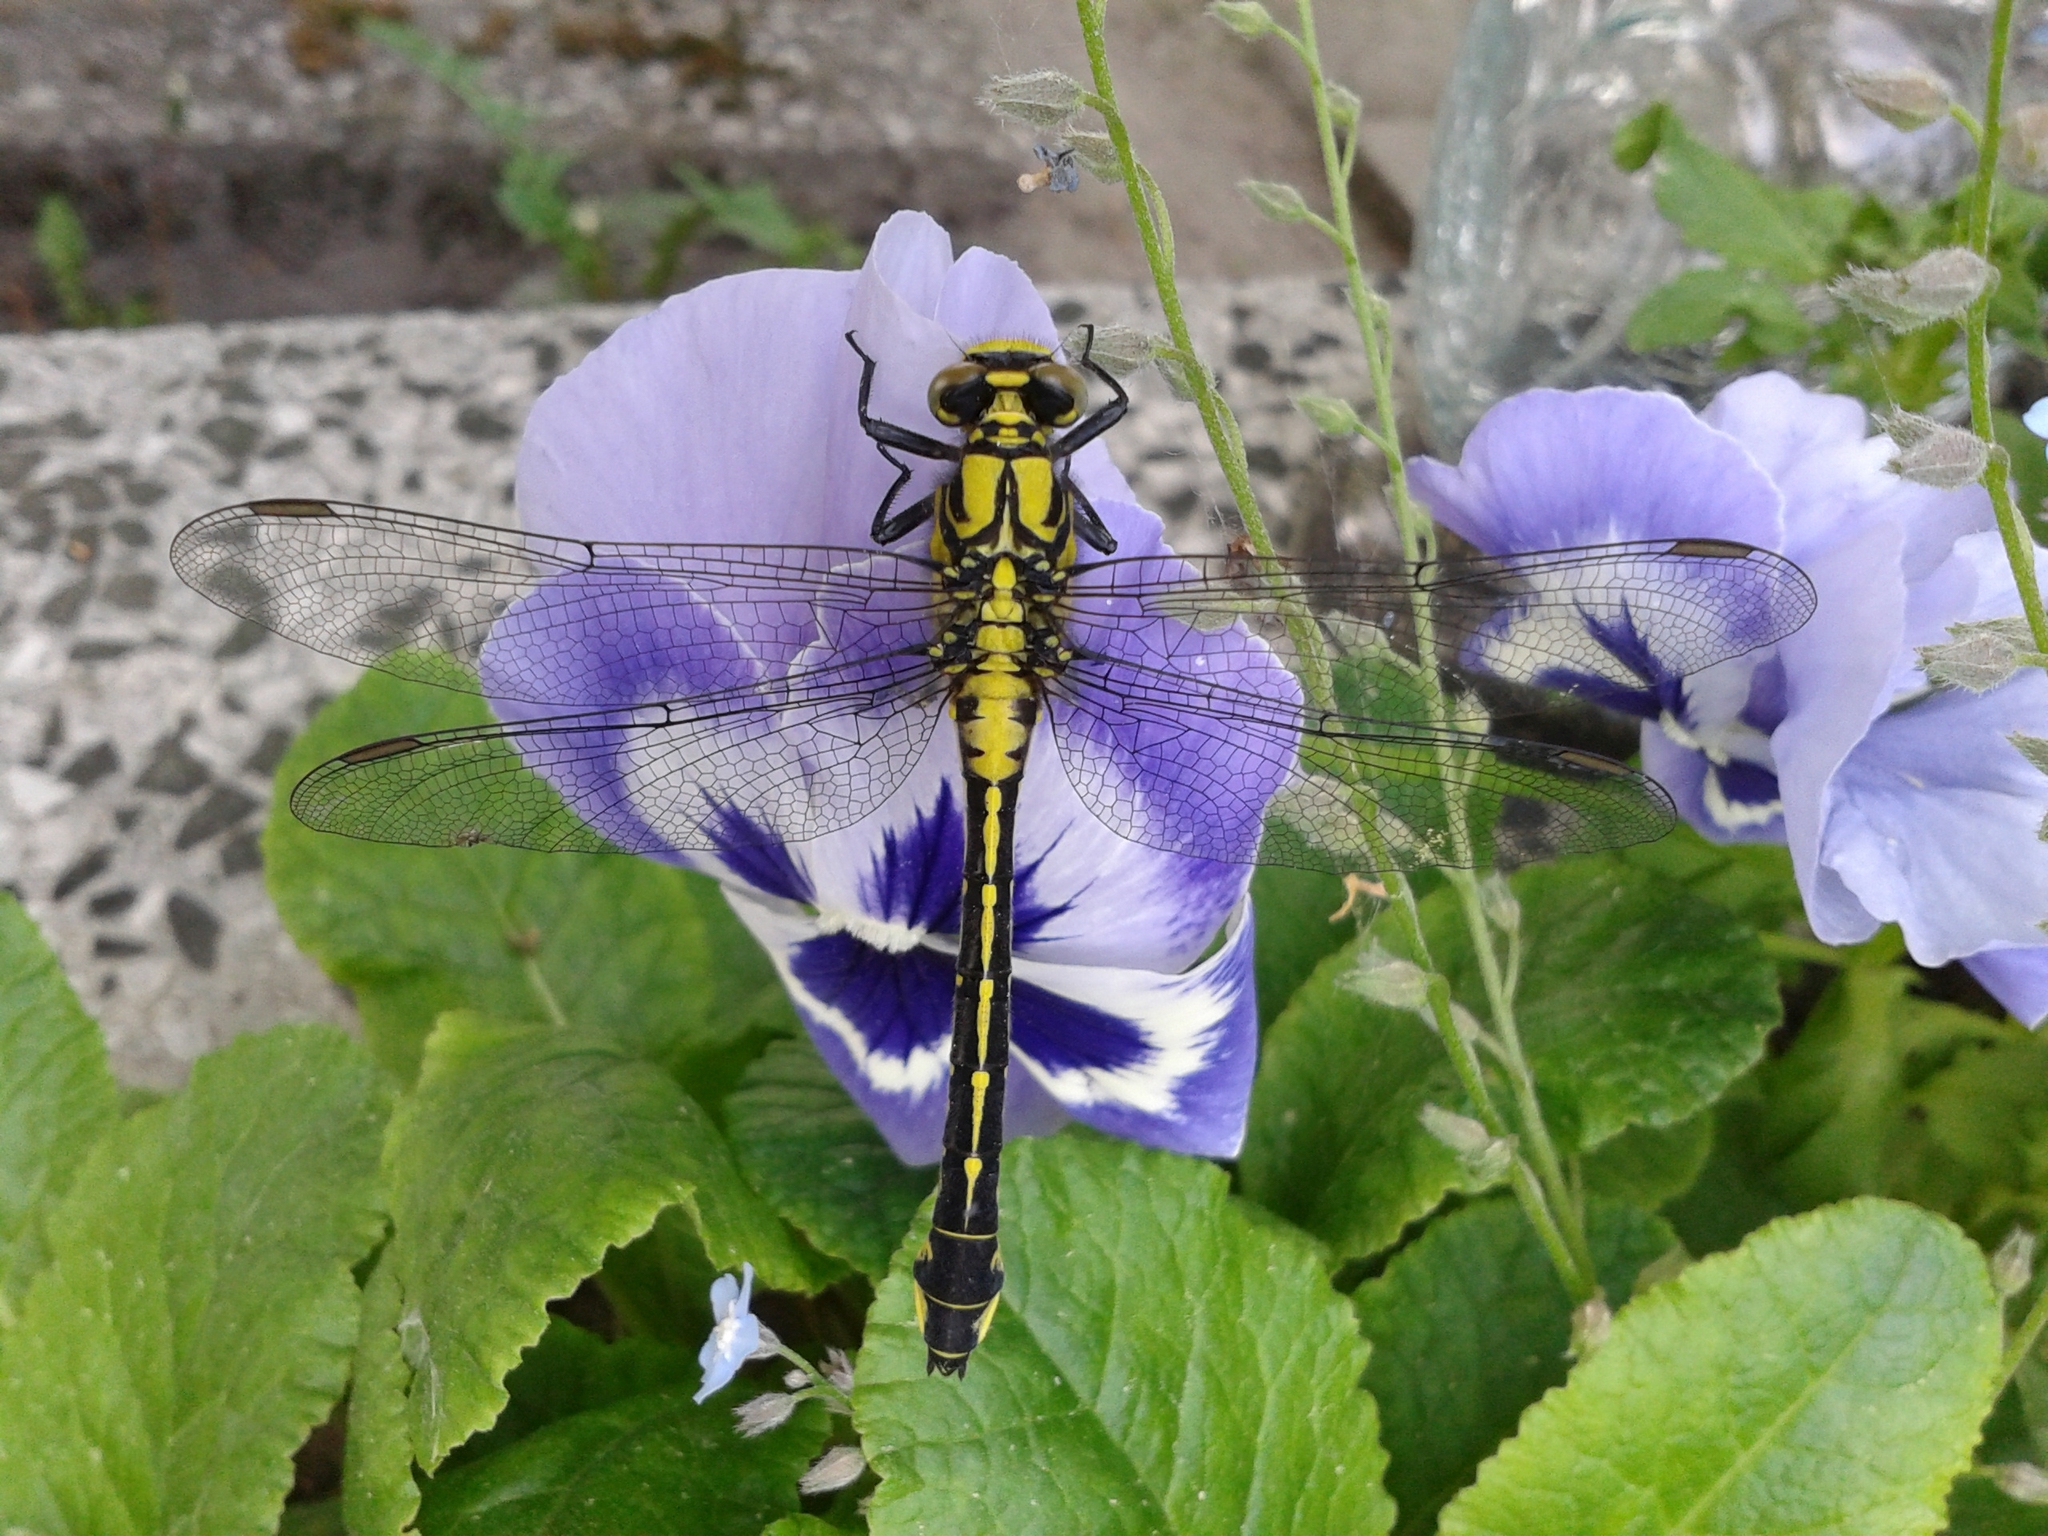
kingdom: Animalia
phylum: Arthropoda
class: Insecta
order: Odonata
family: Gomphidae
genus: Gomphus
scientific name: Gomphus vulgatissimus
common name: Club-tailed dragonfly
